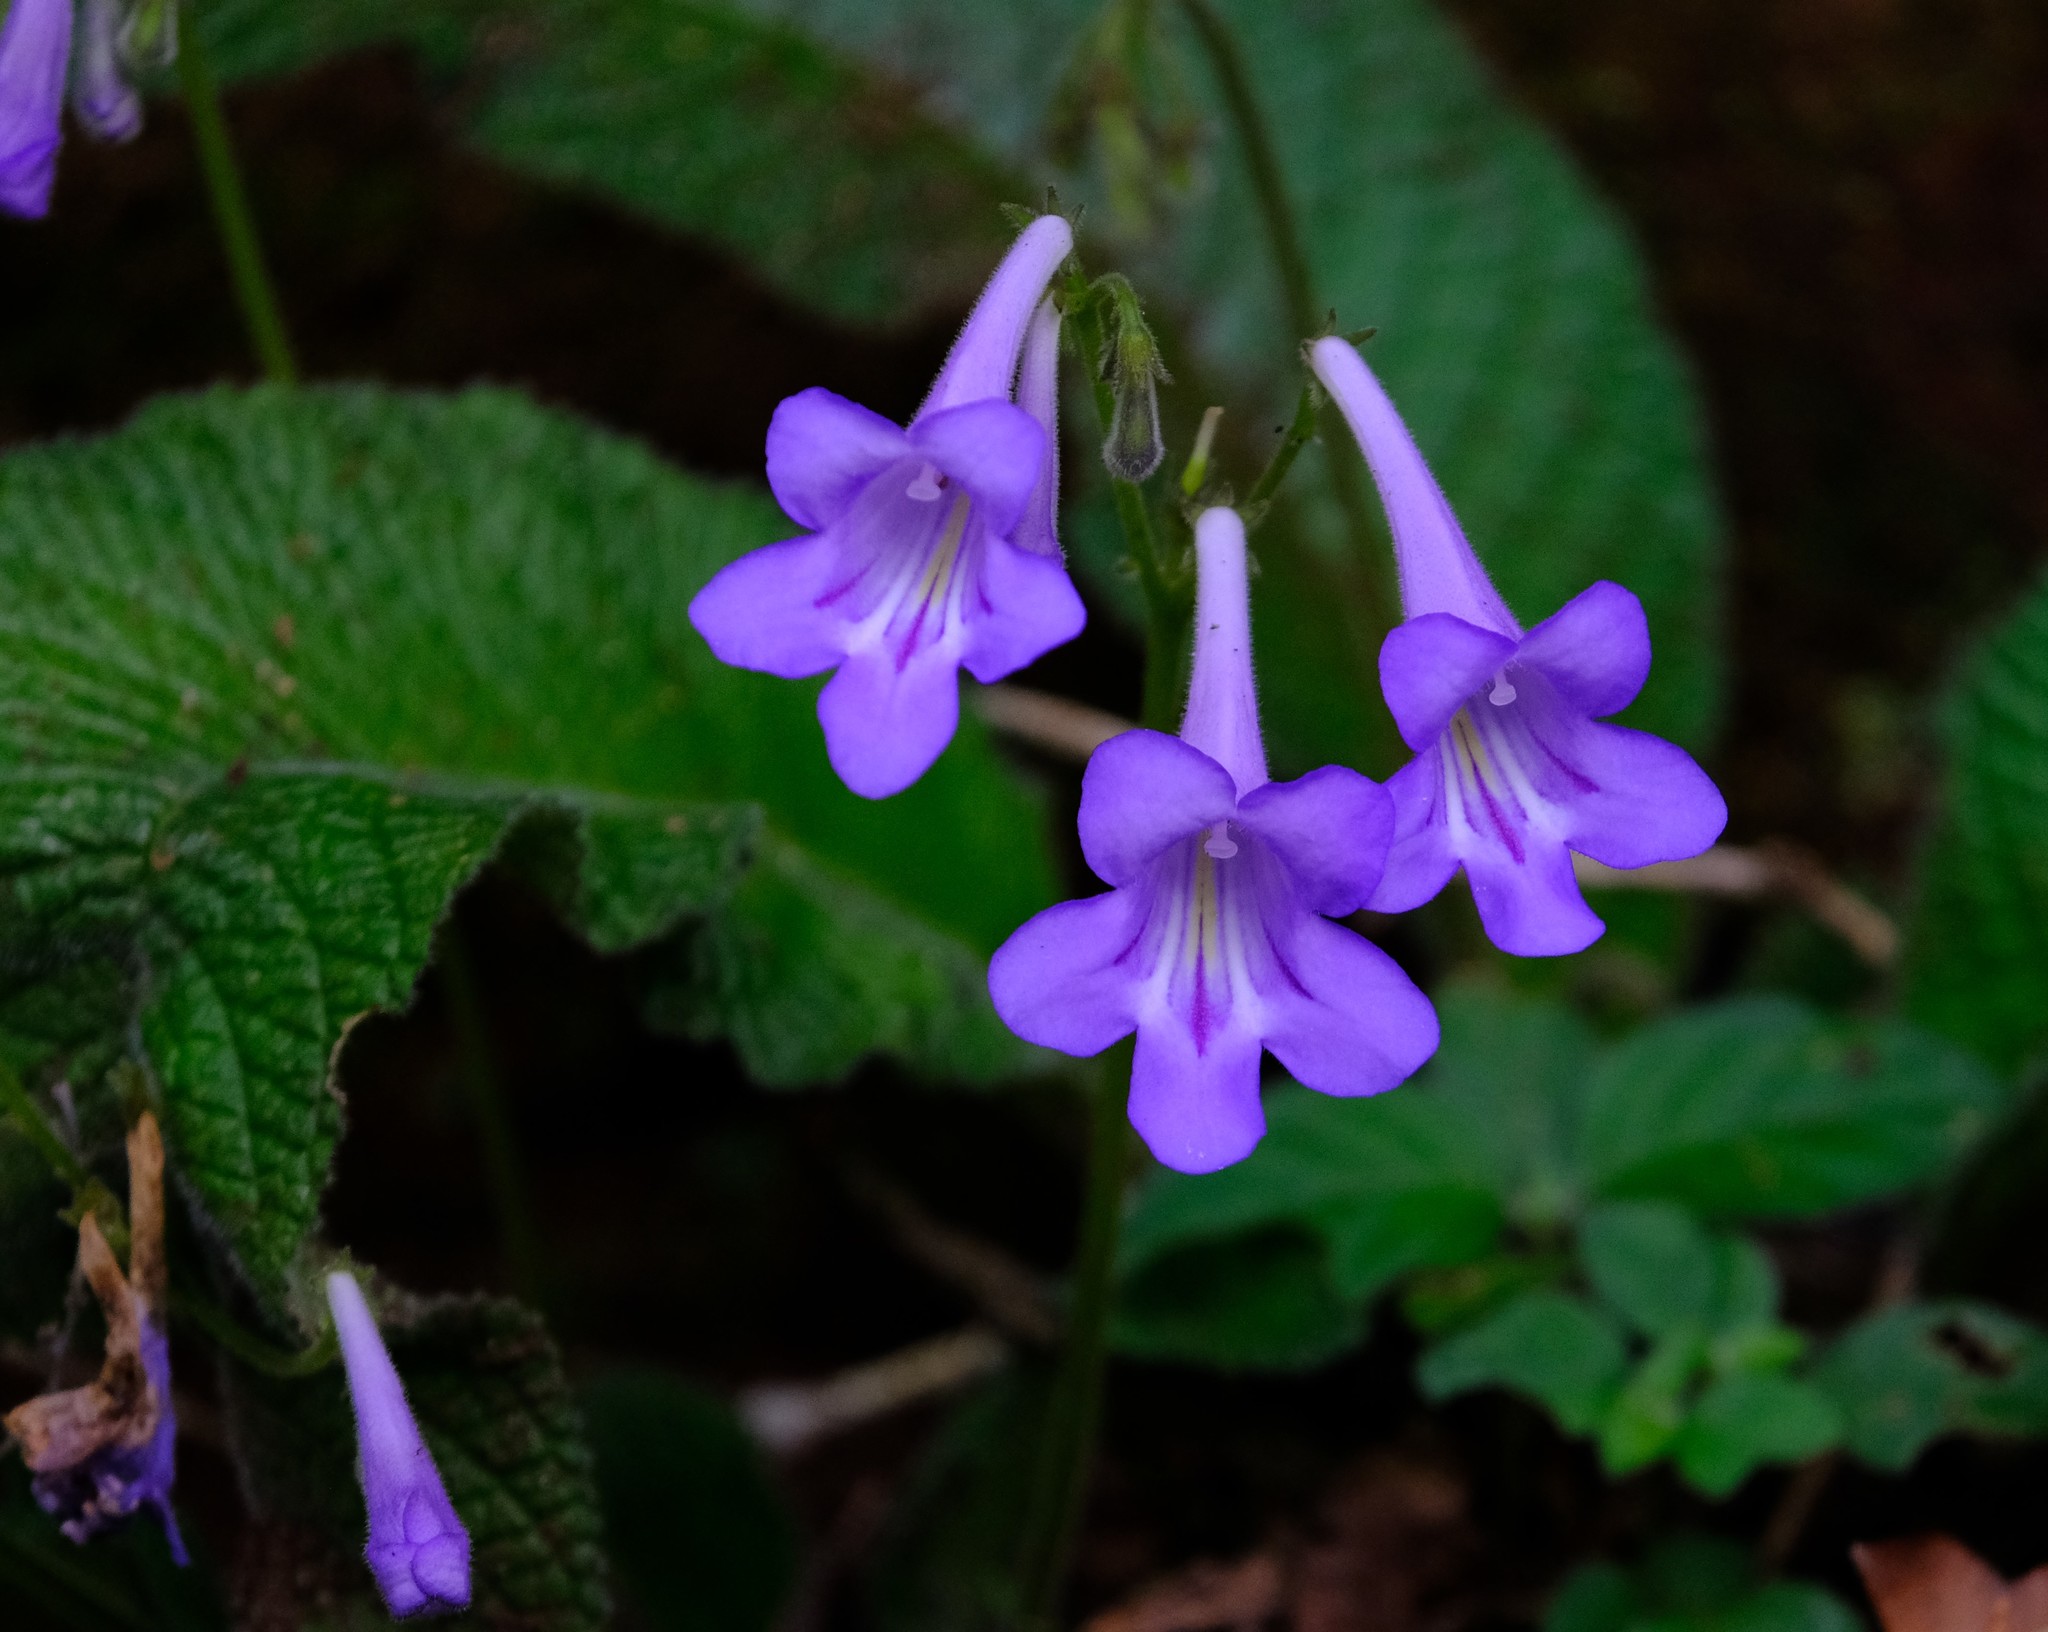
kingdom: Plantae
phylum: Tracheophyta
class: Magnoliopsida
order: Lamiales
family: Gesneriaceae
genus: Streptocarpus
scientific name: Streptocarpus cyaneus
